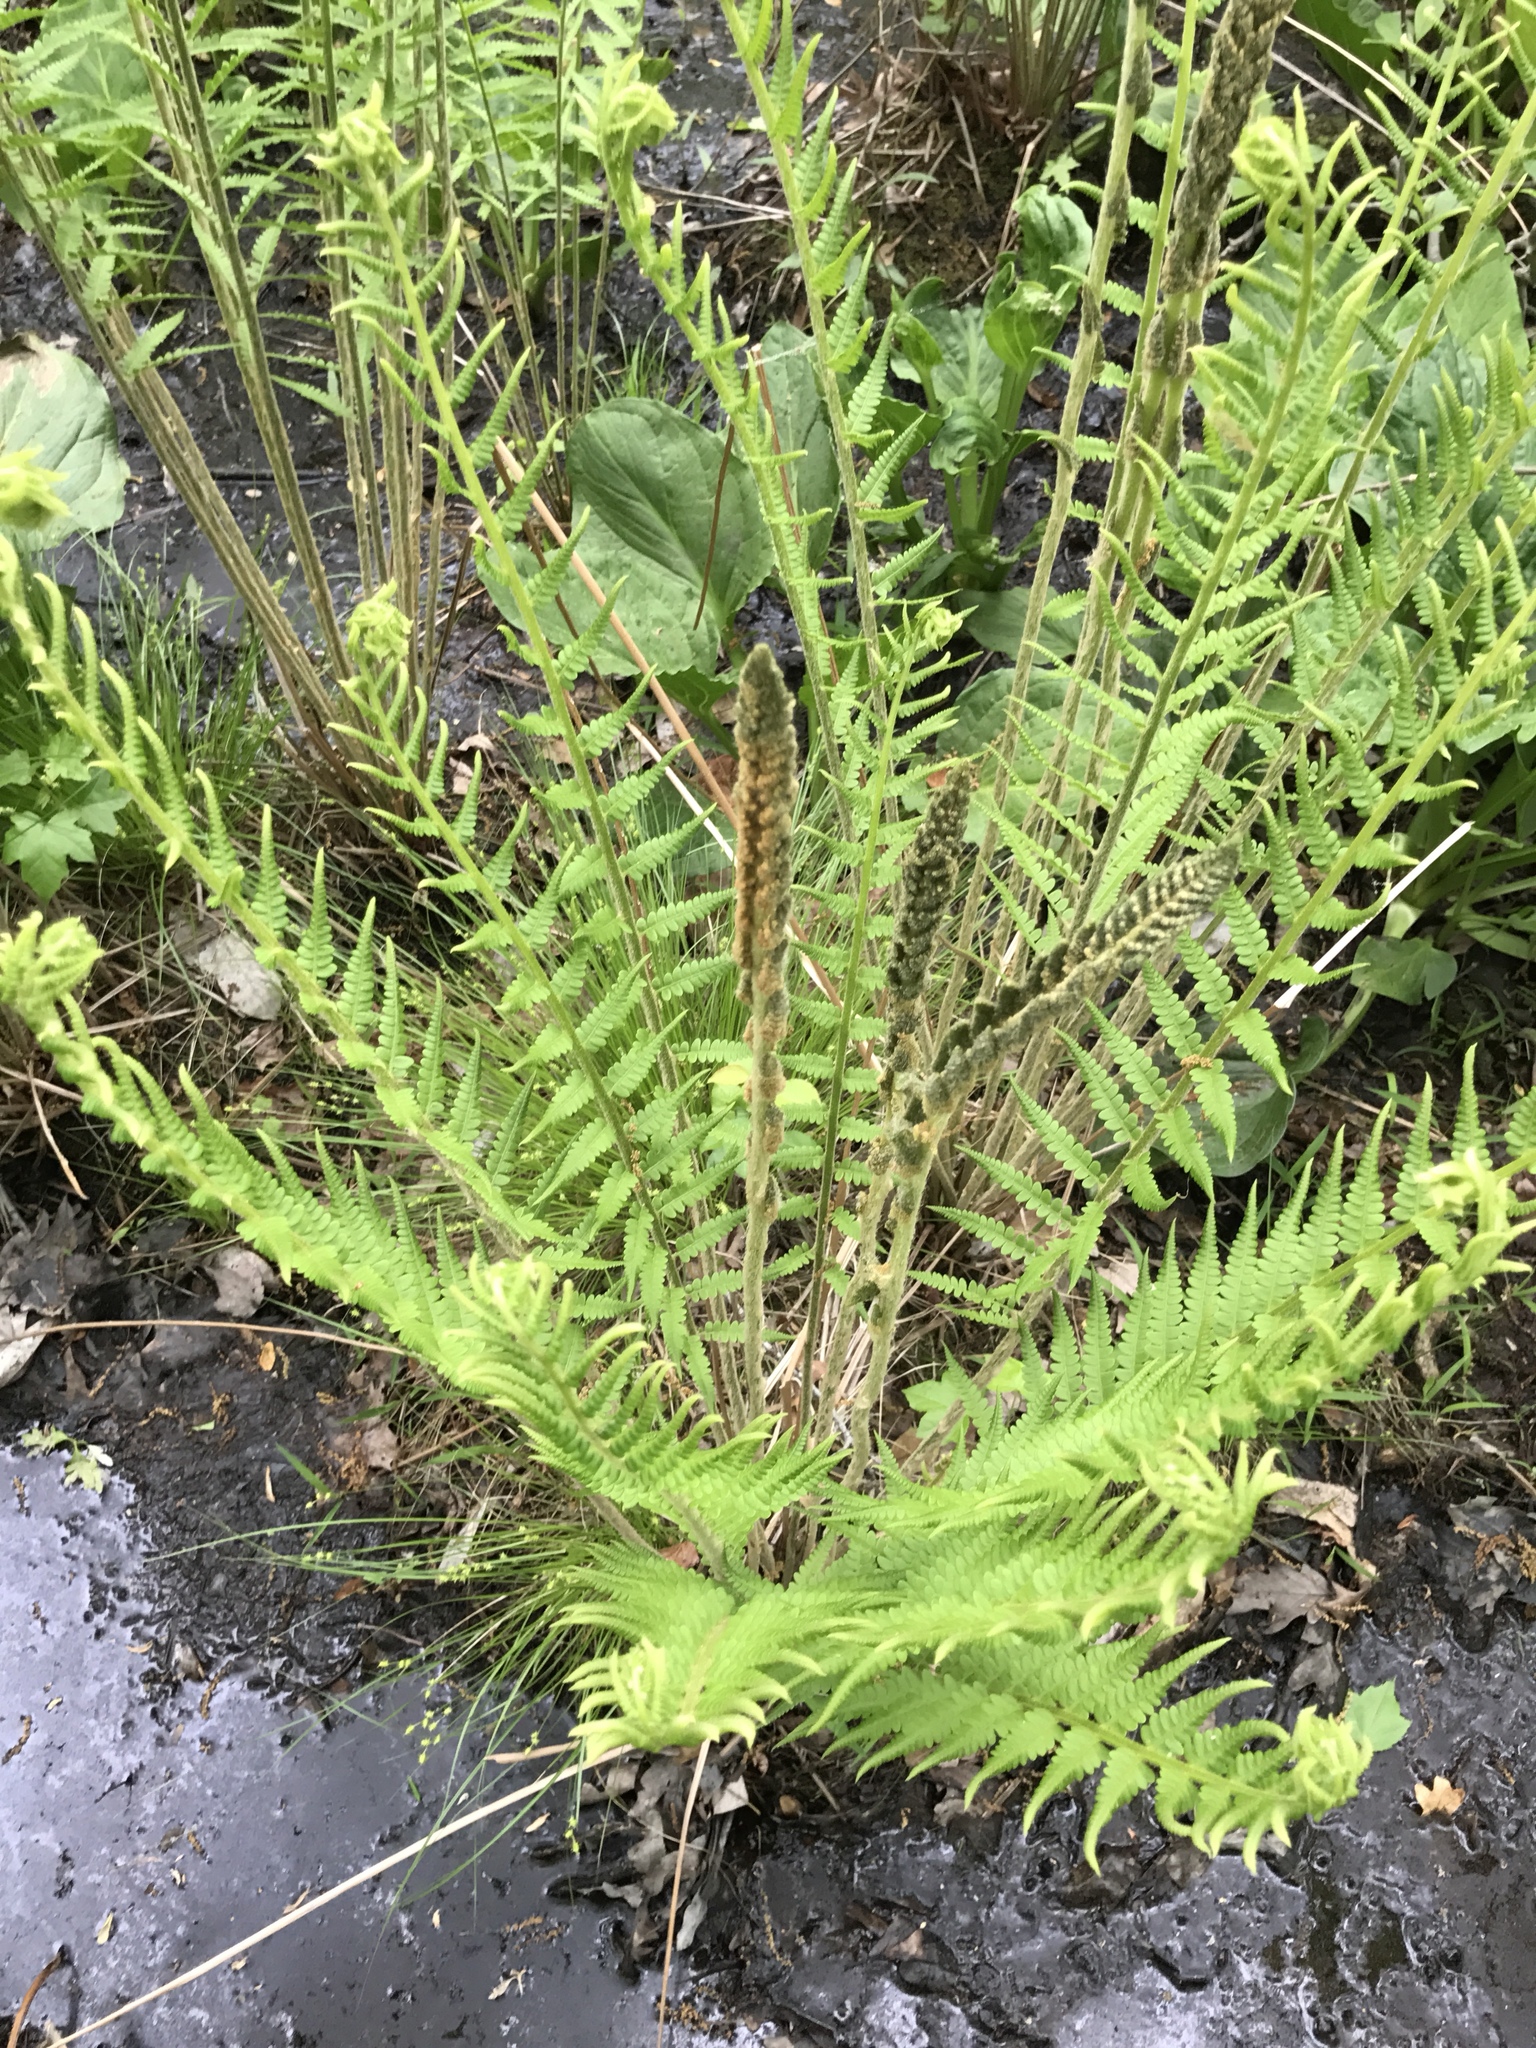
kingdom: Plantae
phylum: Tracheophyta
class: Polypodiopsida
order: Osmundales
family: Osmundaceae
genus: Osmundastrum
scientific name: Osmundastrum cinnamomeum
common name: Cinnamon fern
